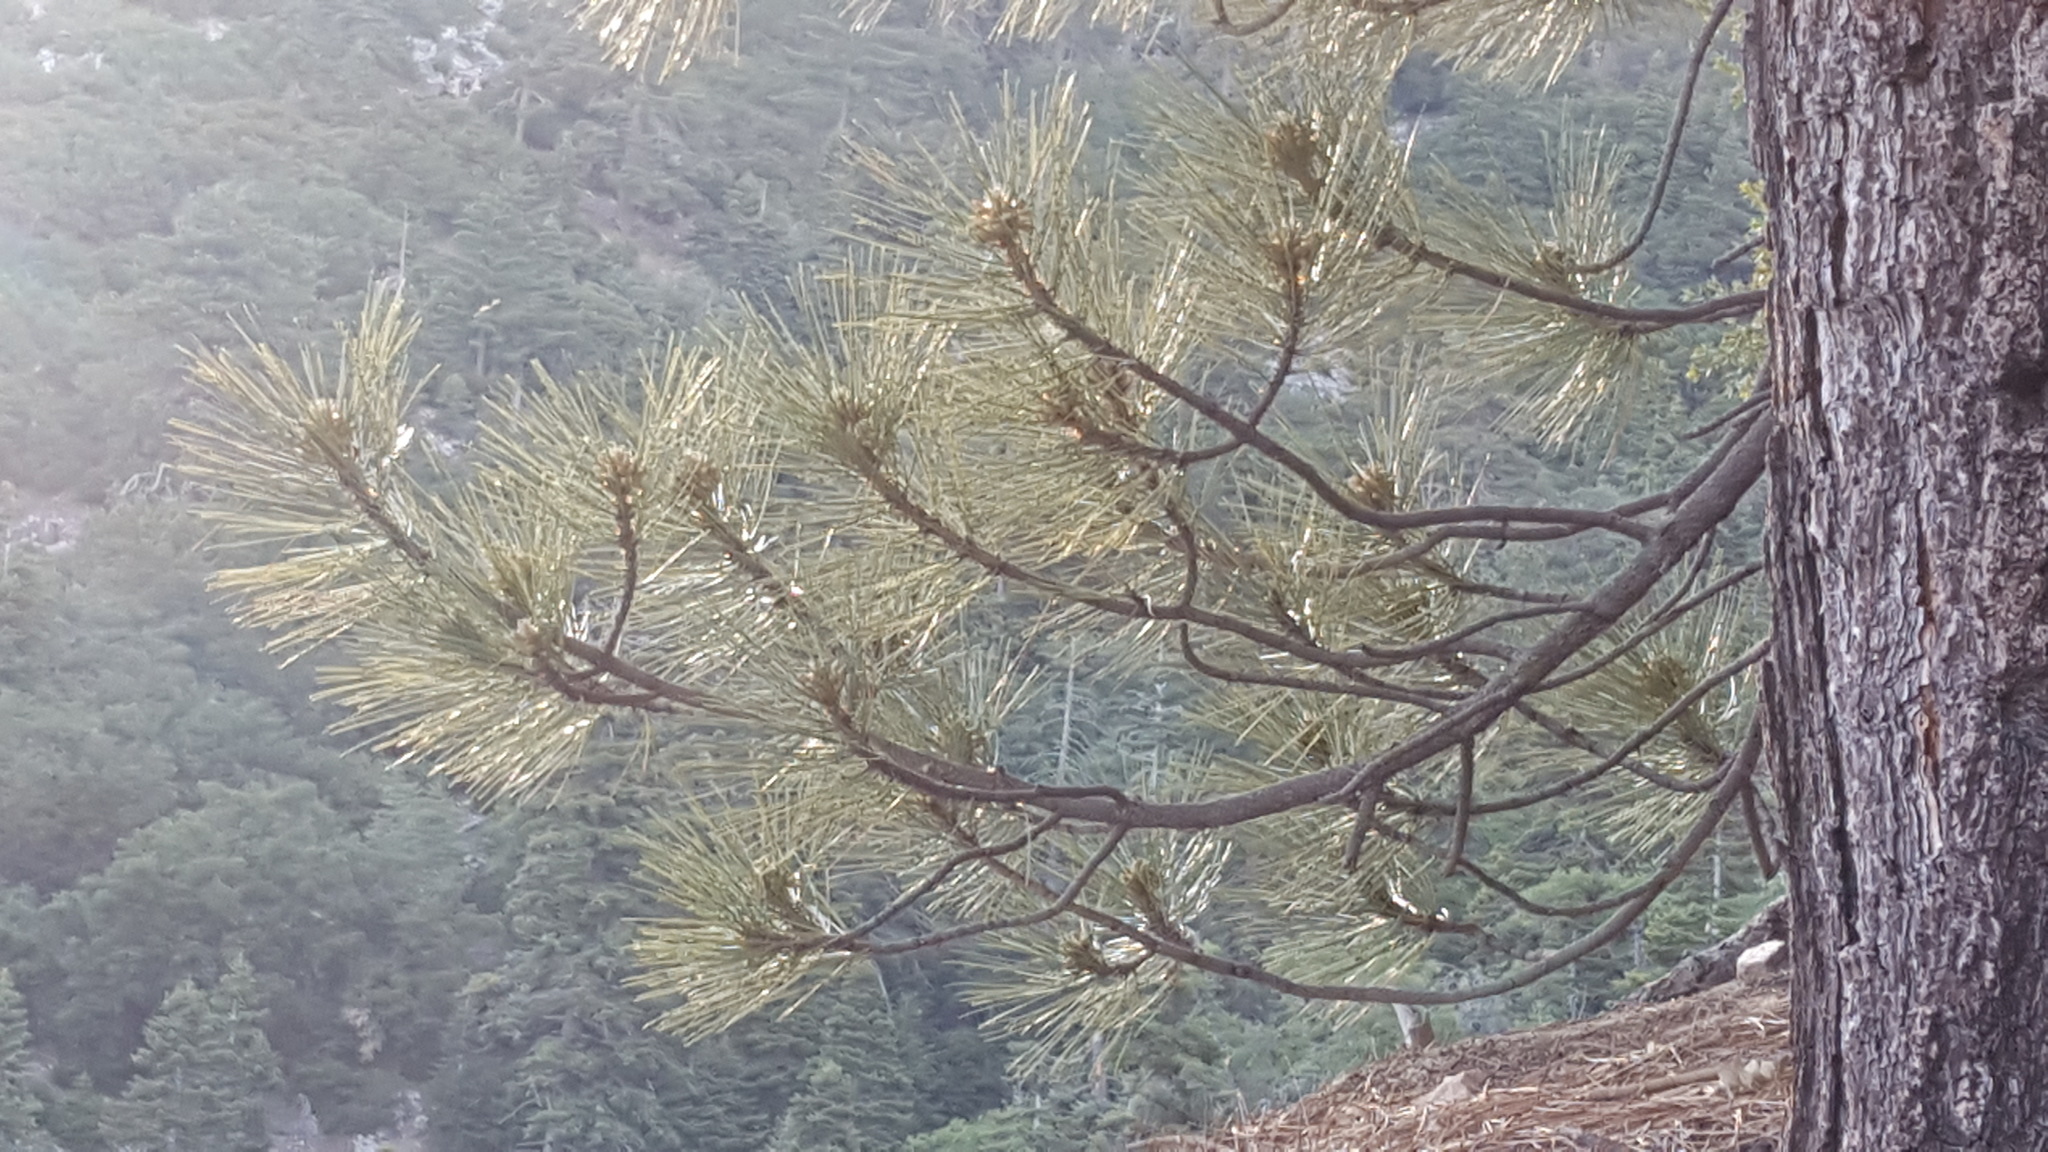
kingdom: Plantae
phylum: Tracheophyta
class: Pinopsida
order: Pinales
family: Pinaceae
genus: Pinus
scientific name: Pinus coulteri
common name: Coulter pine
